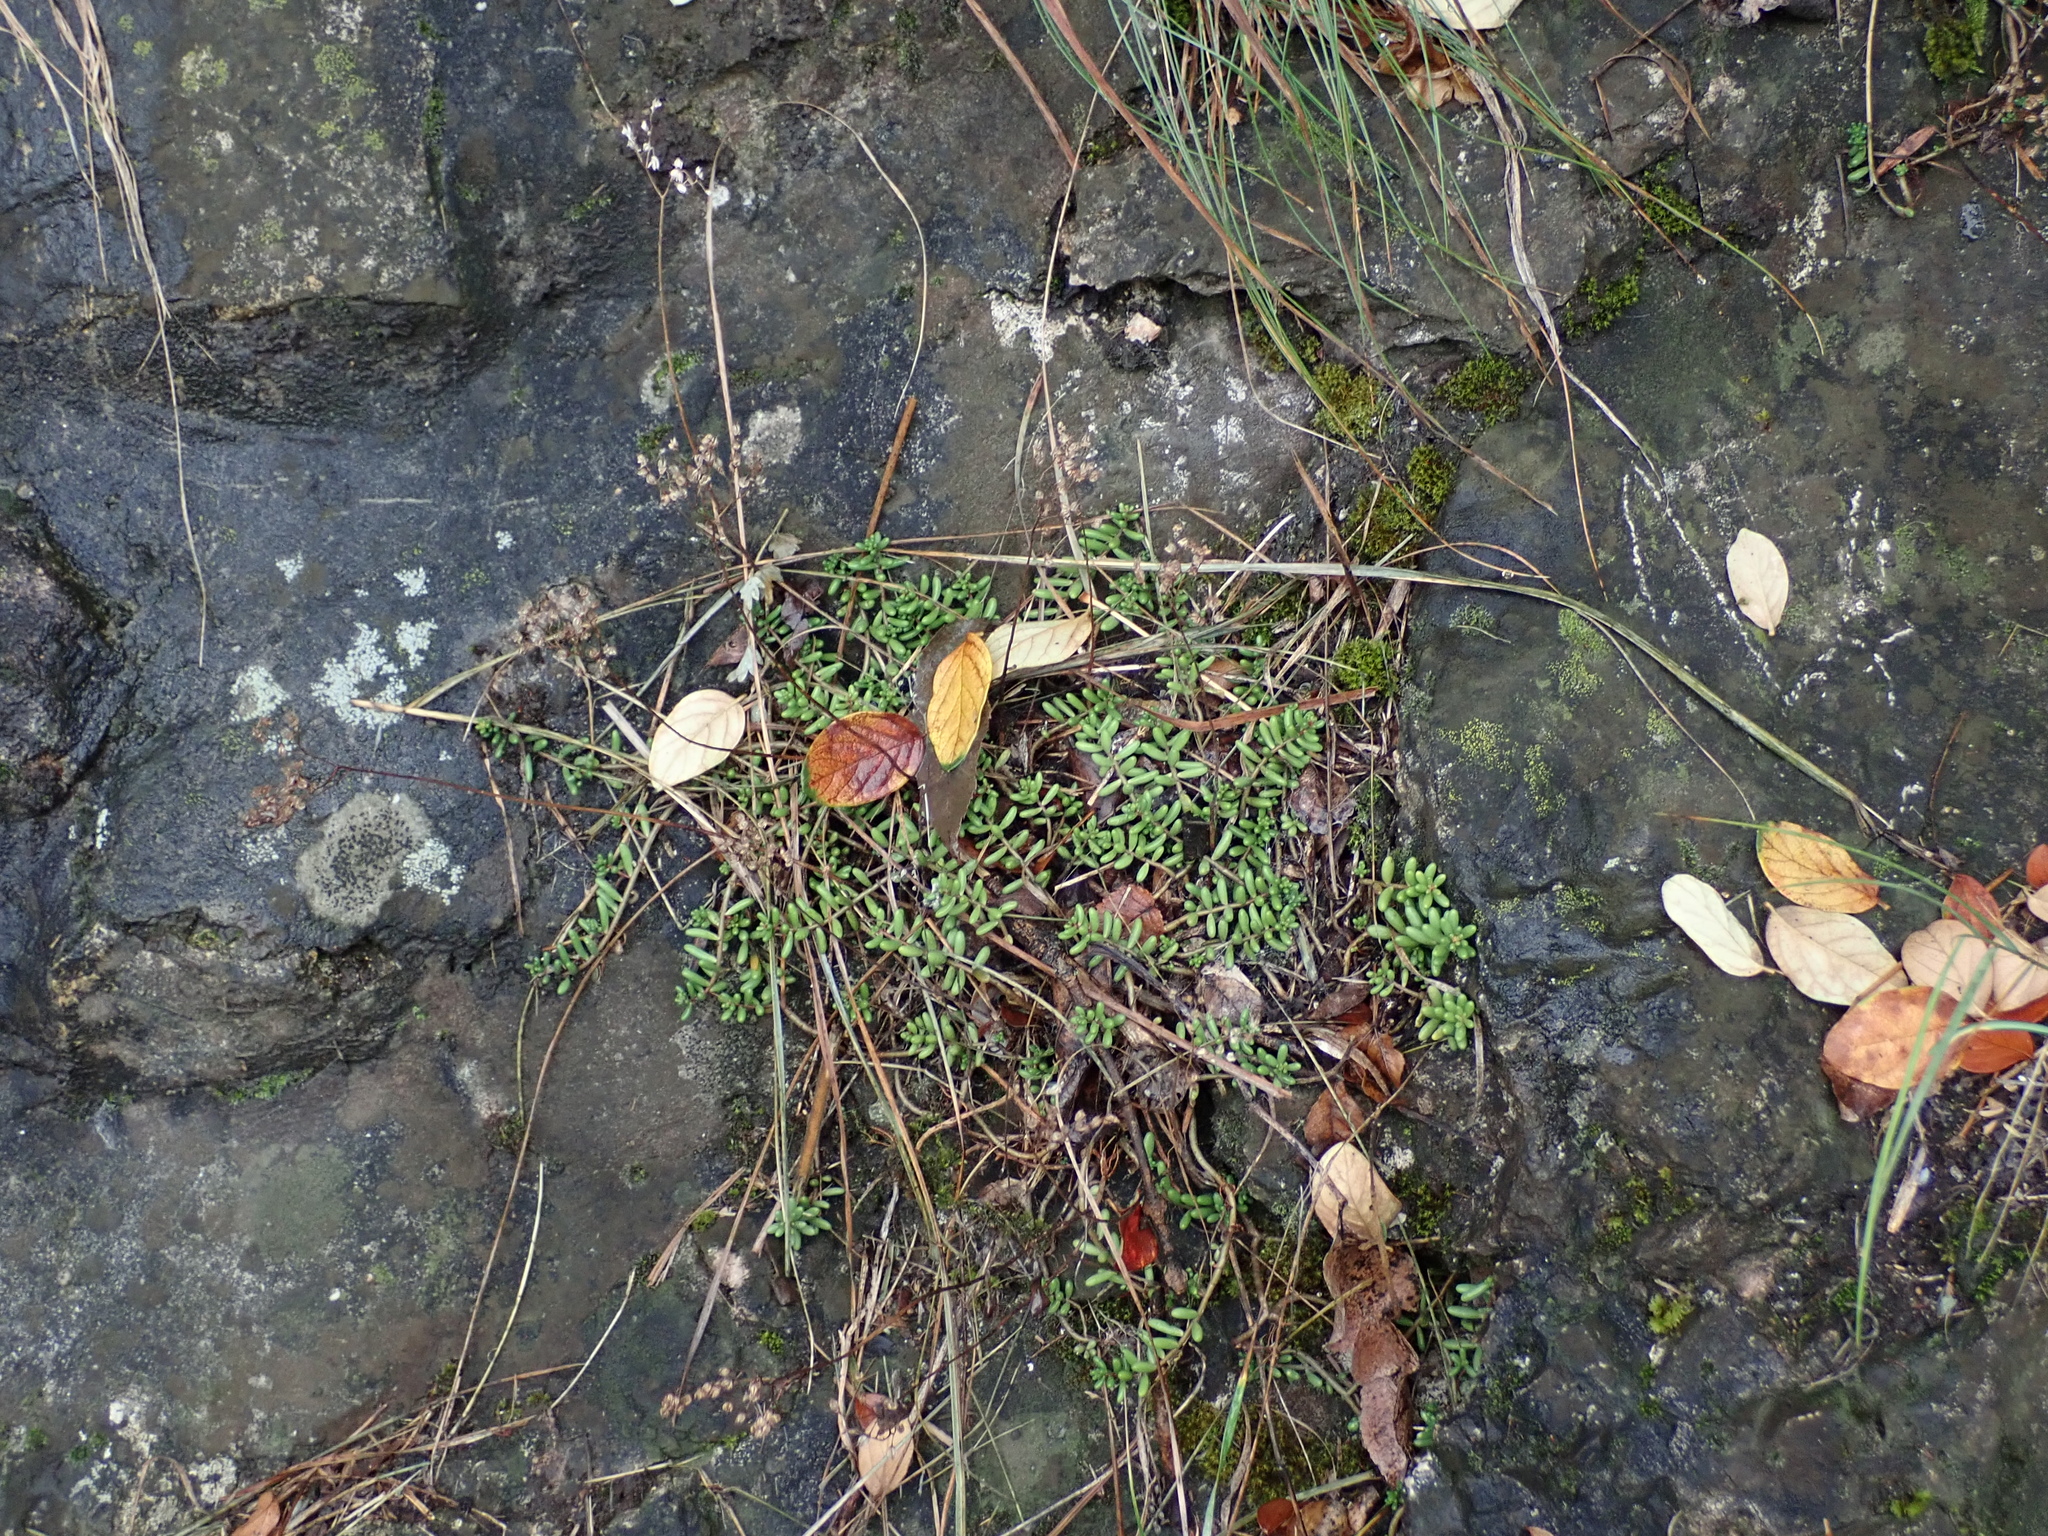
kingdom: Plantae
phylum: Tracheophyta
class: Magnoliopsida
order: Saxifragales
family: Crassulaceae
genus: Sedum
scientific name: Sedum album
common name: White stonecrop
